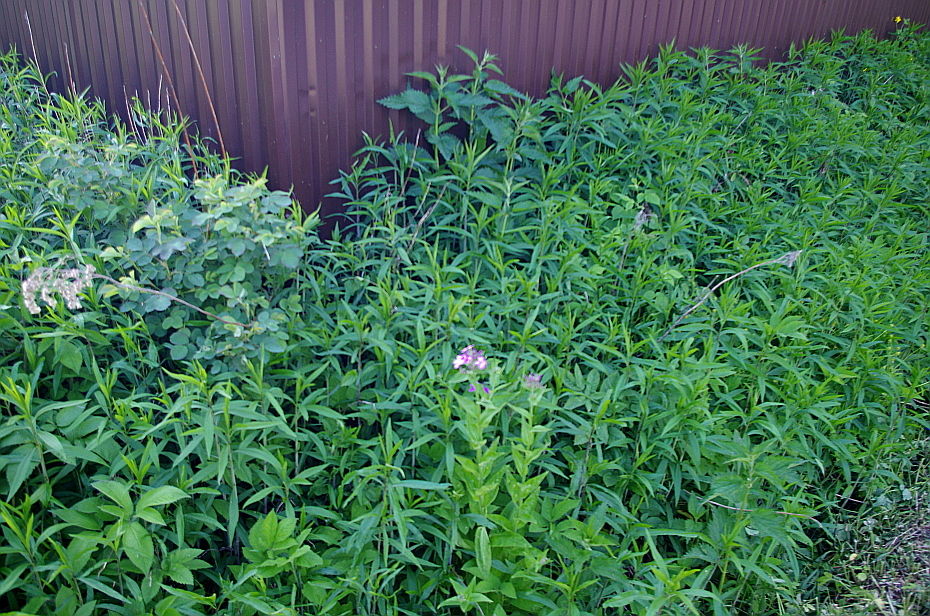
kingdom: Plantae
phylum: Tracheophyta
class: Magnoliopsida
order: Asterales
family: Asteraceae
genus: Solidago
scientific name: Solidago gigantea
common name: Giant goldenrod
